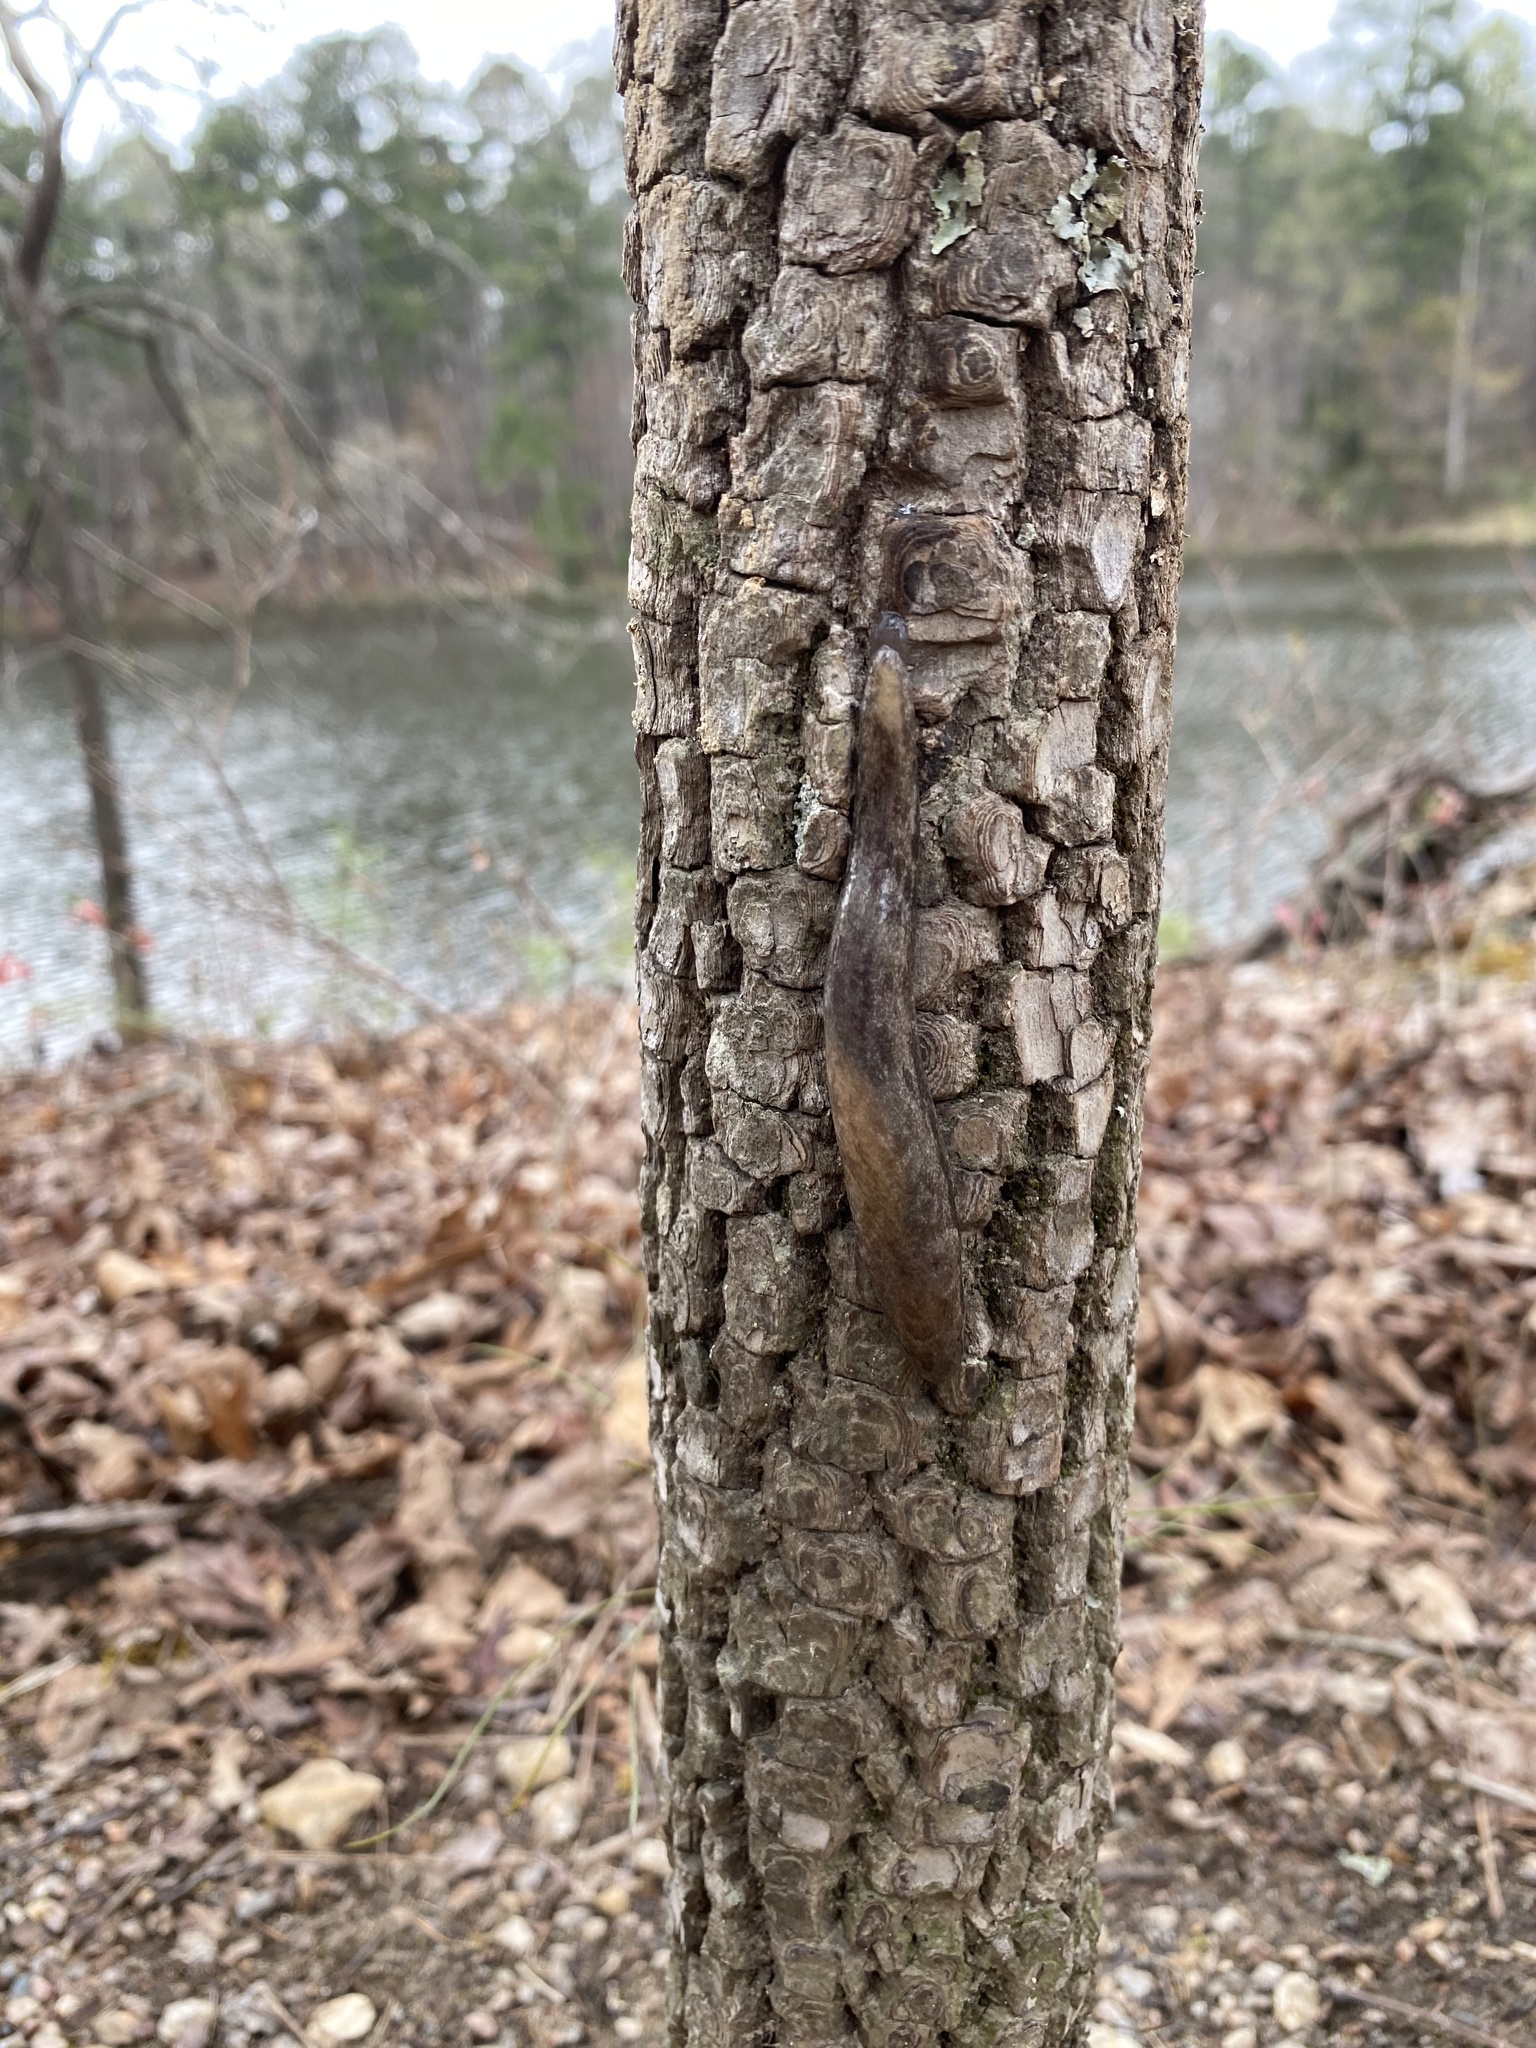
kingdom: Animalia
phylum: Mollusca
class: Gastropoda
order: Stylommatophora
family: Philomycidae
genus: Megapallifera
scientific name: Megapallifera mutabilis
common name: Changeable mantleslug
